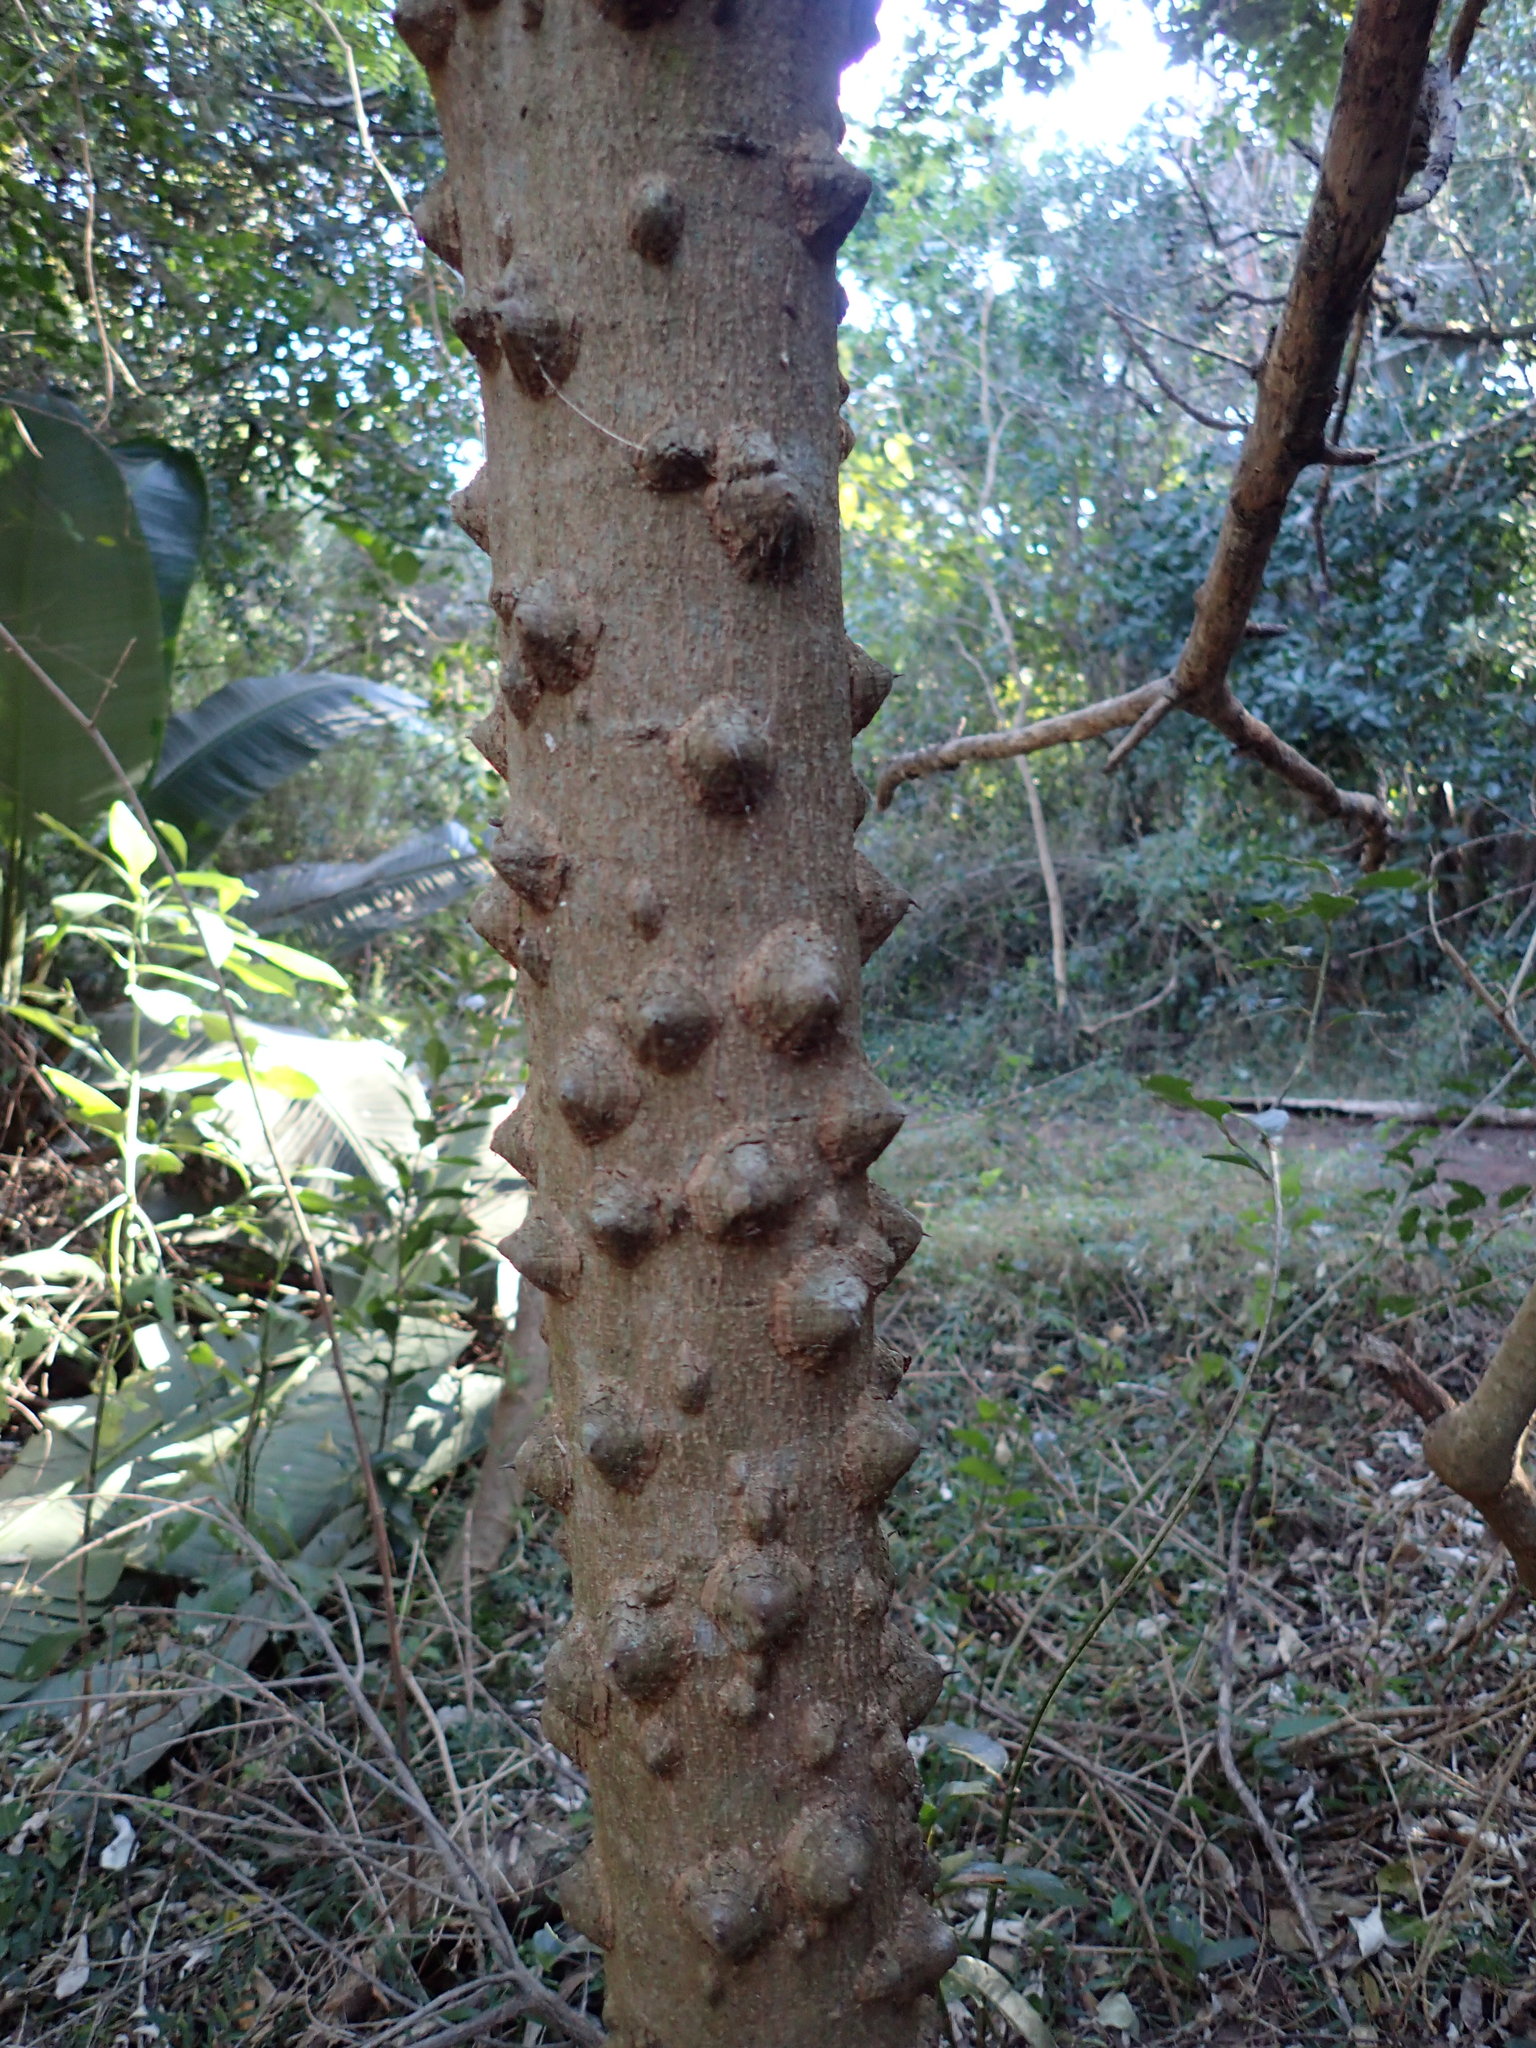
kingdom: Plantae
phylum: Tracheophyta
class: Magnoliopsida
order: Sapindales
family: Rutaceae
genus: Zanthoxylum
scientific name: Zanthoxylum capense
